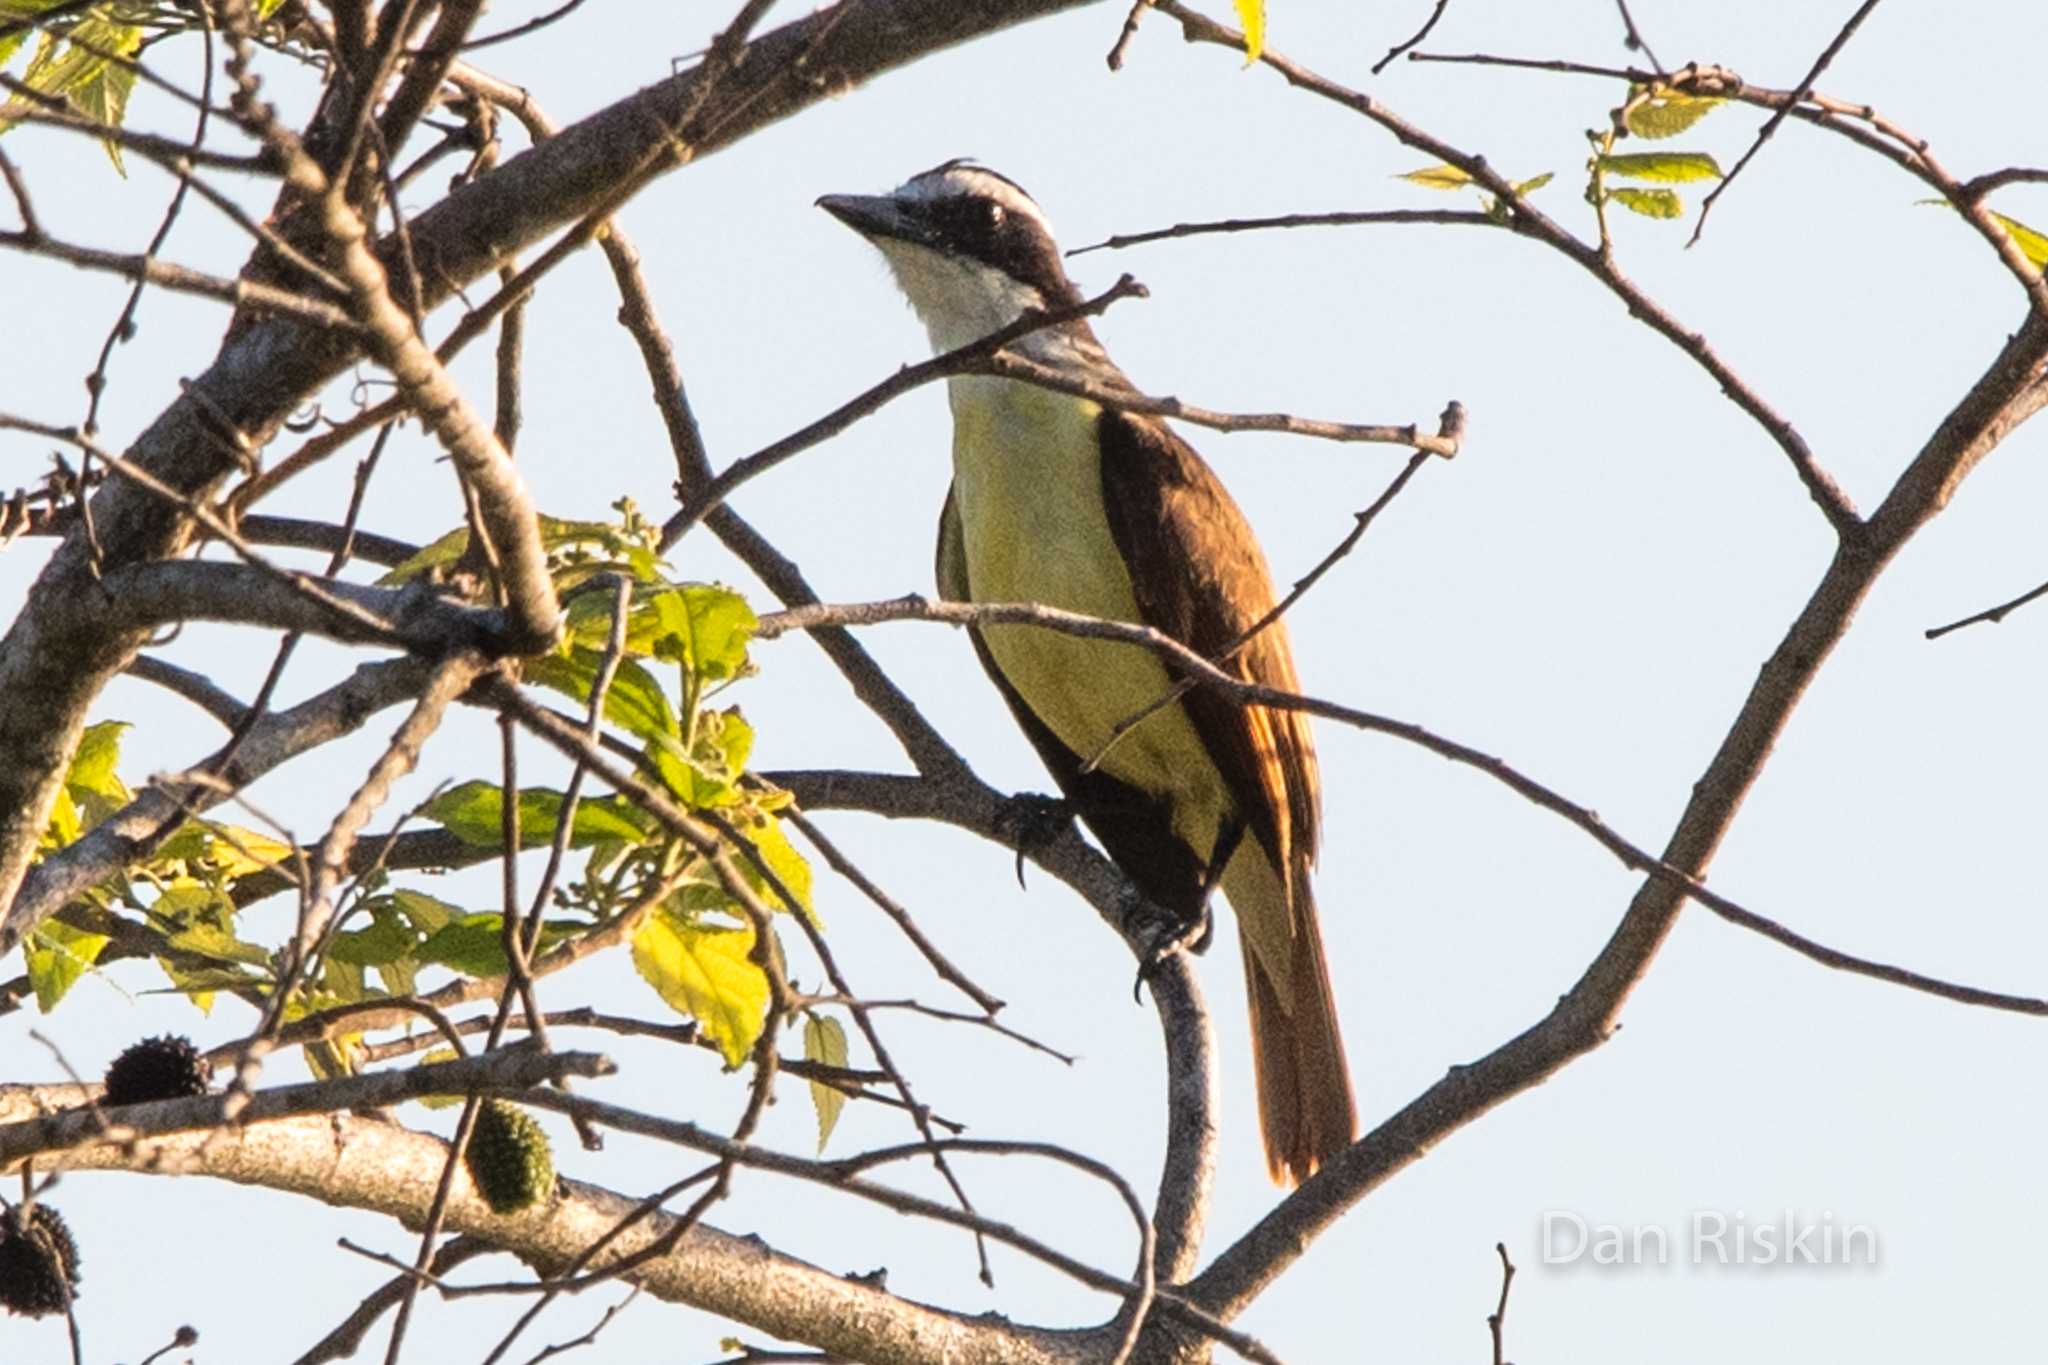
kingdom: Animalia
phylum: Chordata
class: Aves
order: Passeriformes
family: Tyrannidae
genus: Pitangus
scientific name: Pitangus sulphuratus
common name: Great kiskadee
